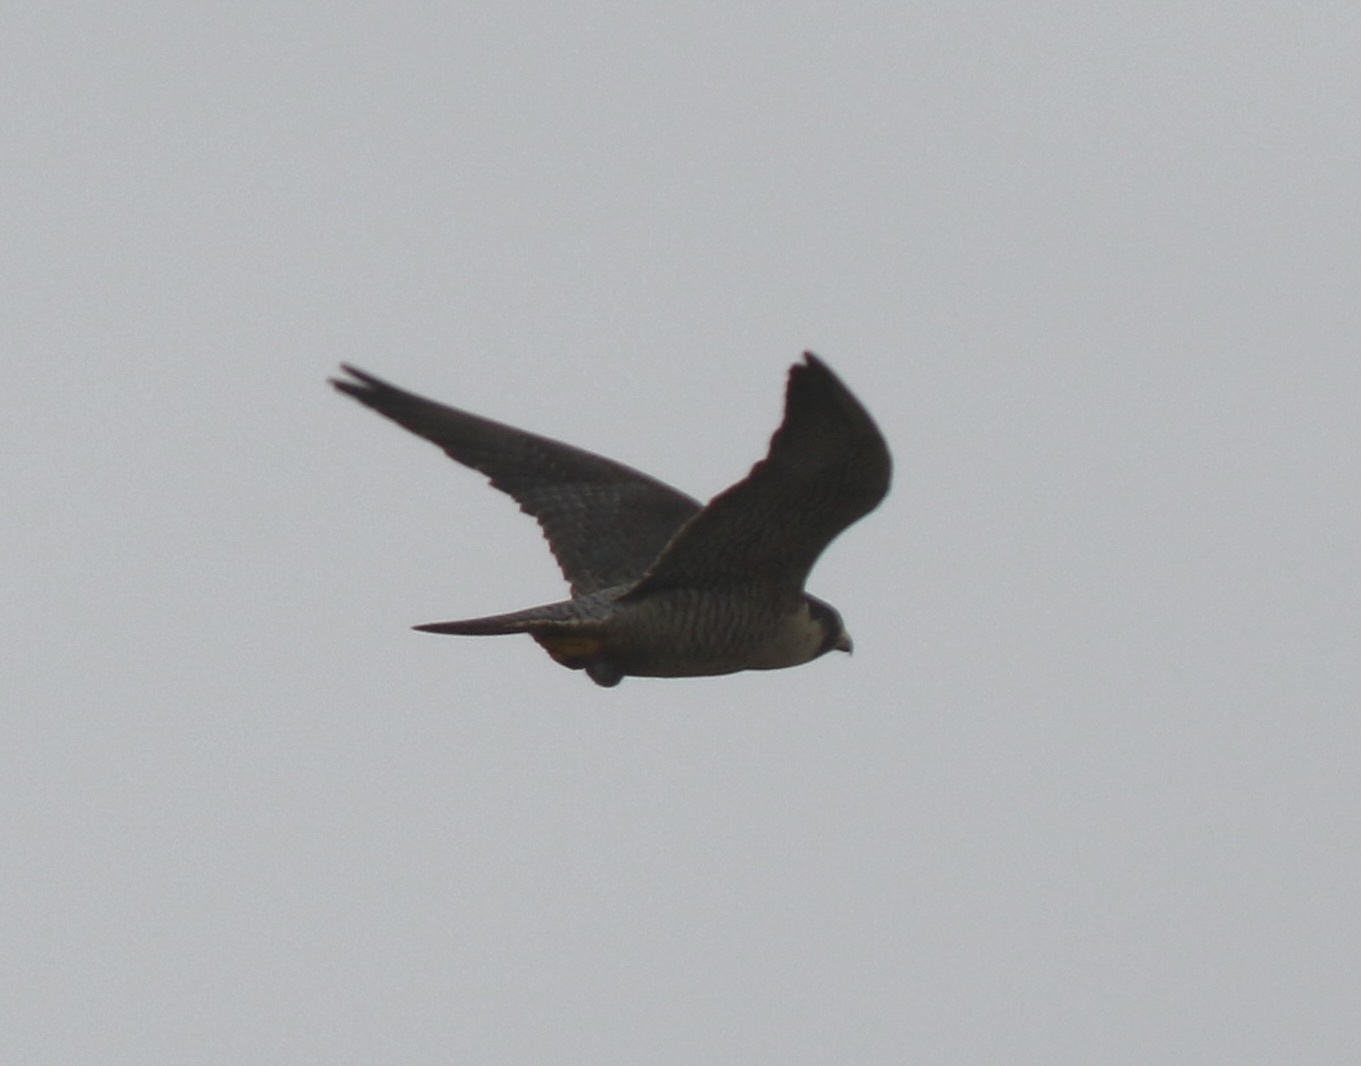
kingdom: Animalia
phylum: Chordata
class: Aves
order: Falconiformes
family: Falconidae
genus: Falco
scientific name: Falco peregrinus
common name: Peregrine falcon
